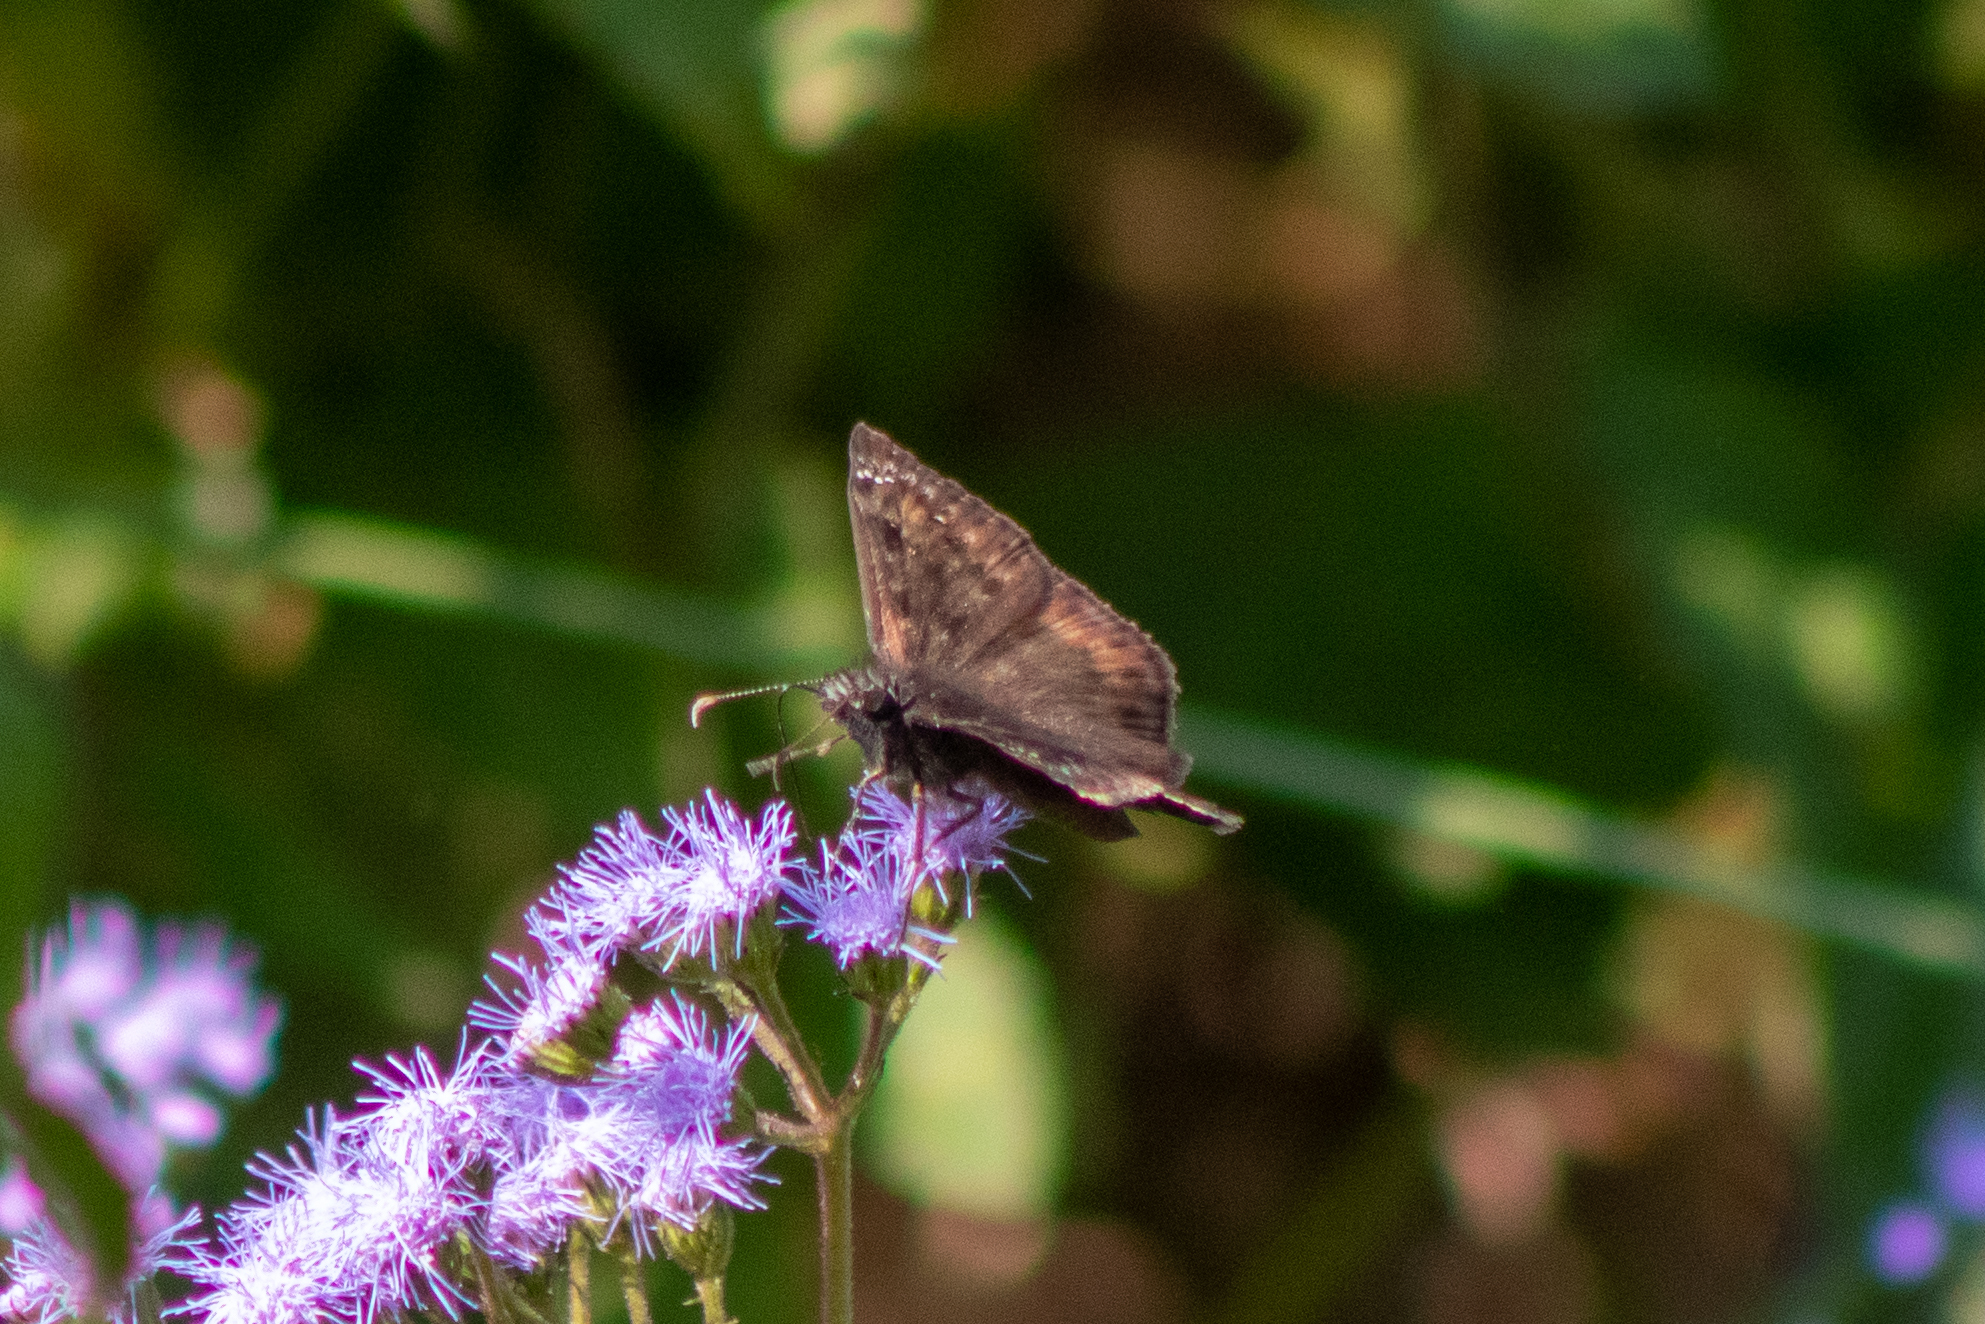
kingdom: Animalia
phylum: Arthropoda
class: Insecta
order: Lepidoptera
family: Hesperiidae
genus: Erynnis
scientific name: Erynnis horatius
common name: Horace's duskywing
